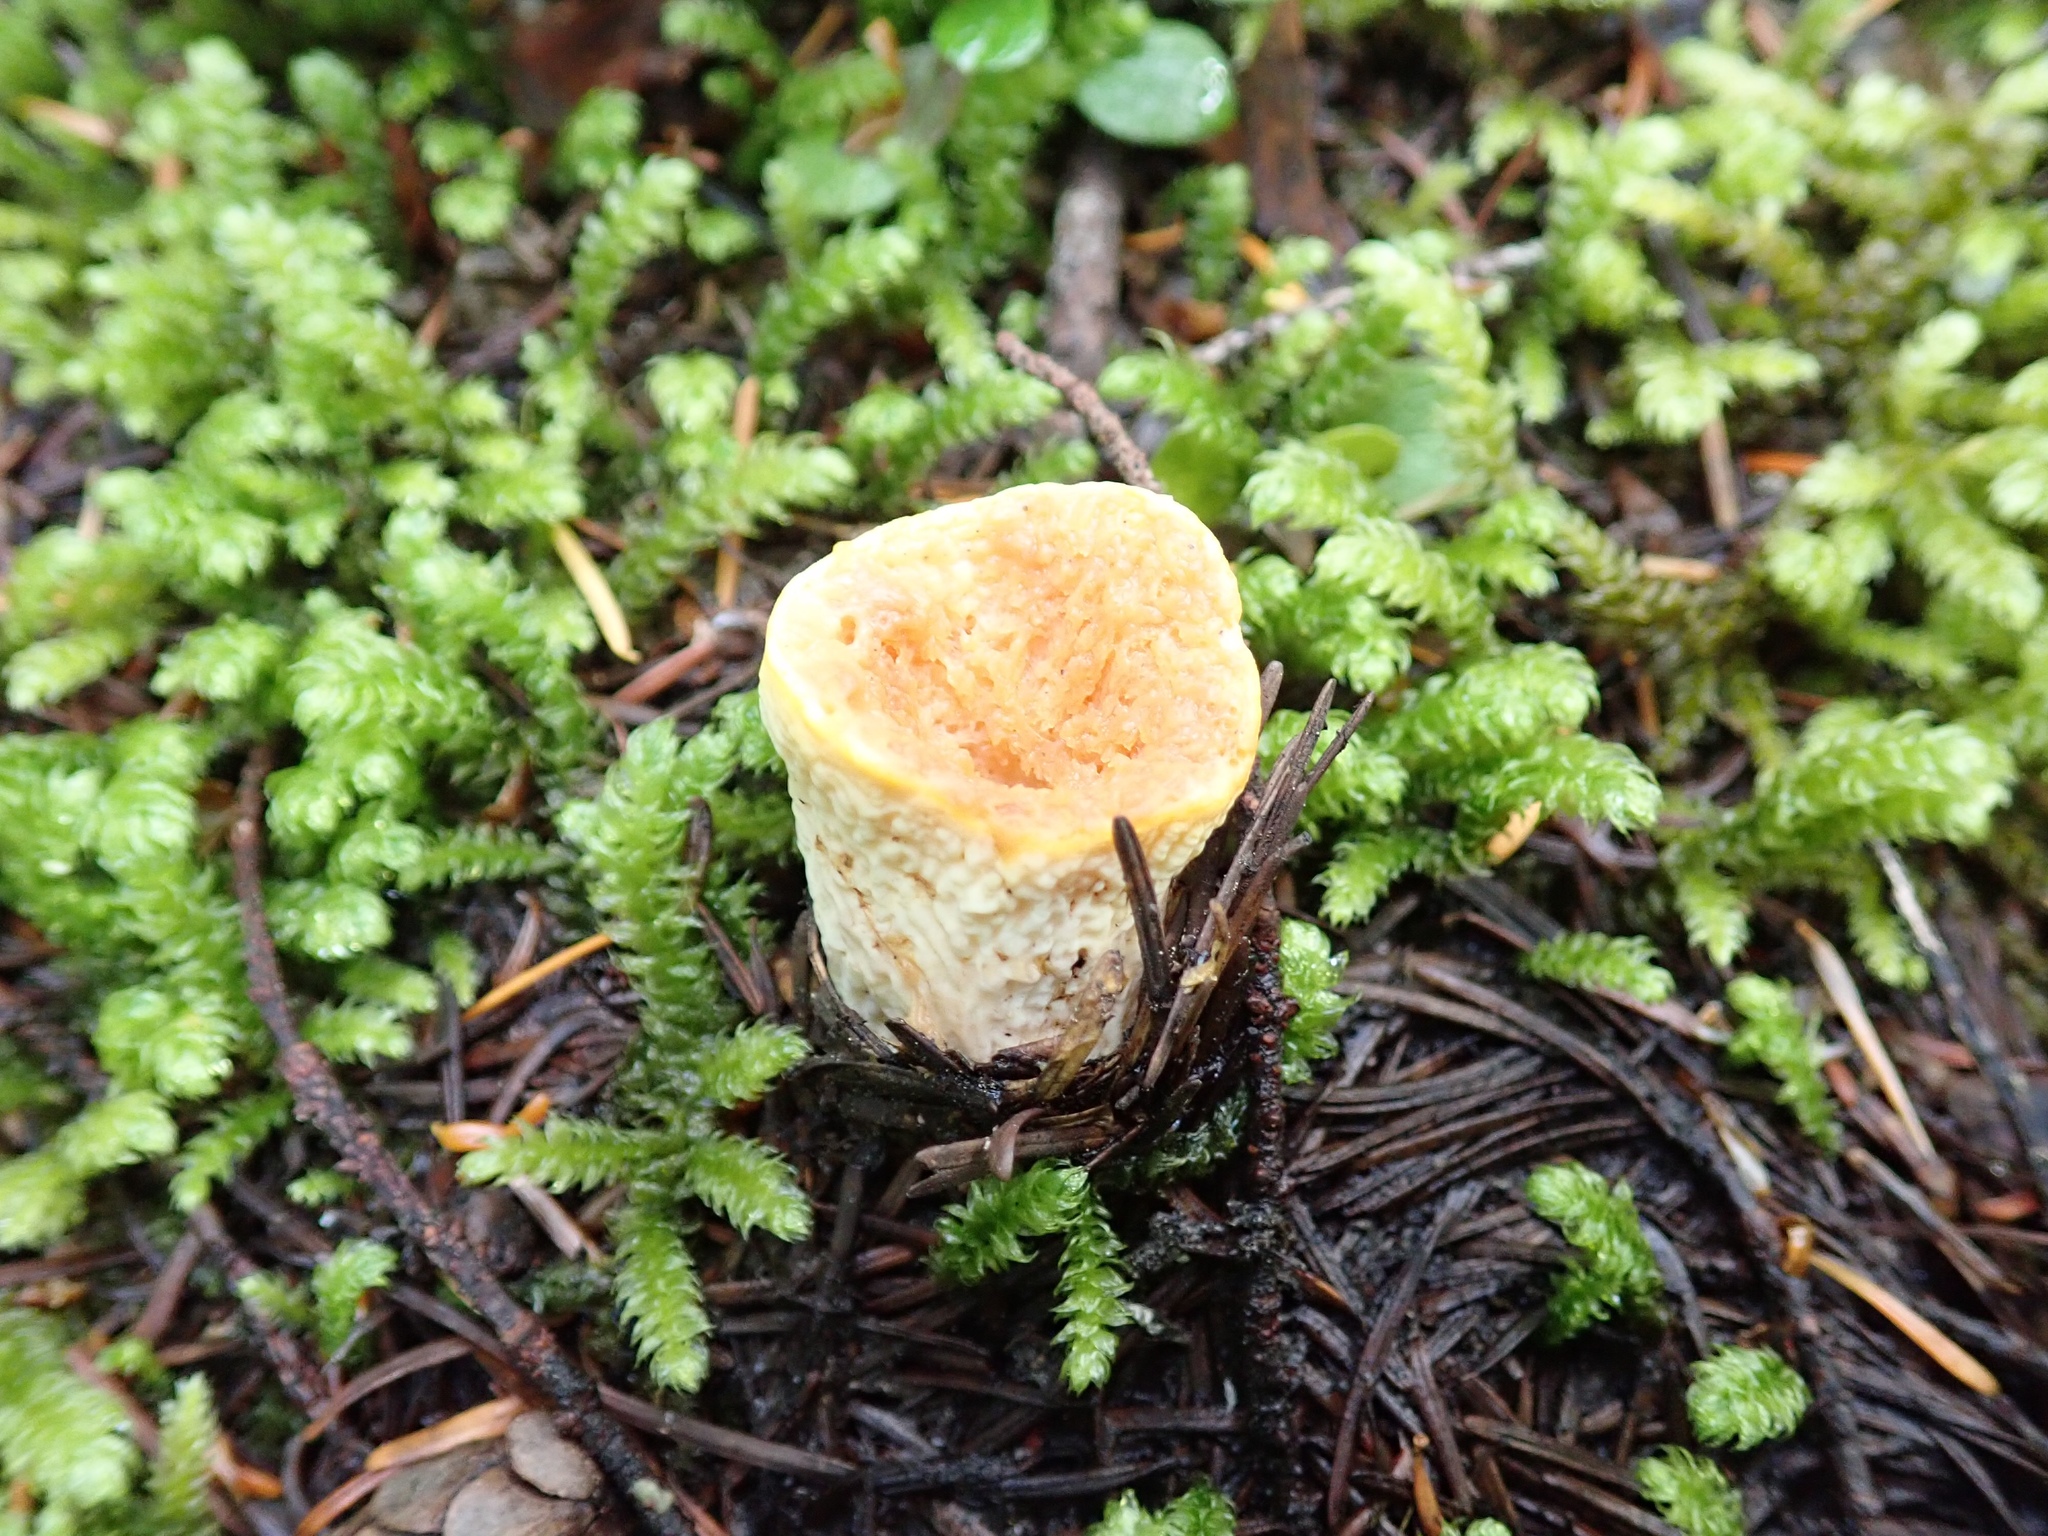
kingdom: Fungi
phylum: Basidiomycota
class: Agaricomycetes
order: Gomphales
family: Gomphaceae
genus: Turbinellus
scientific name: Turbinellus kauffmanii
